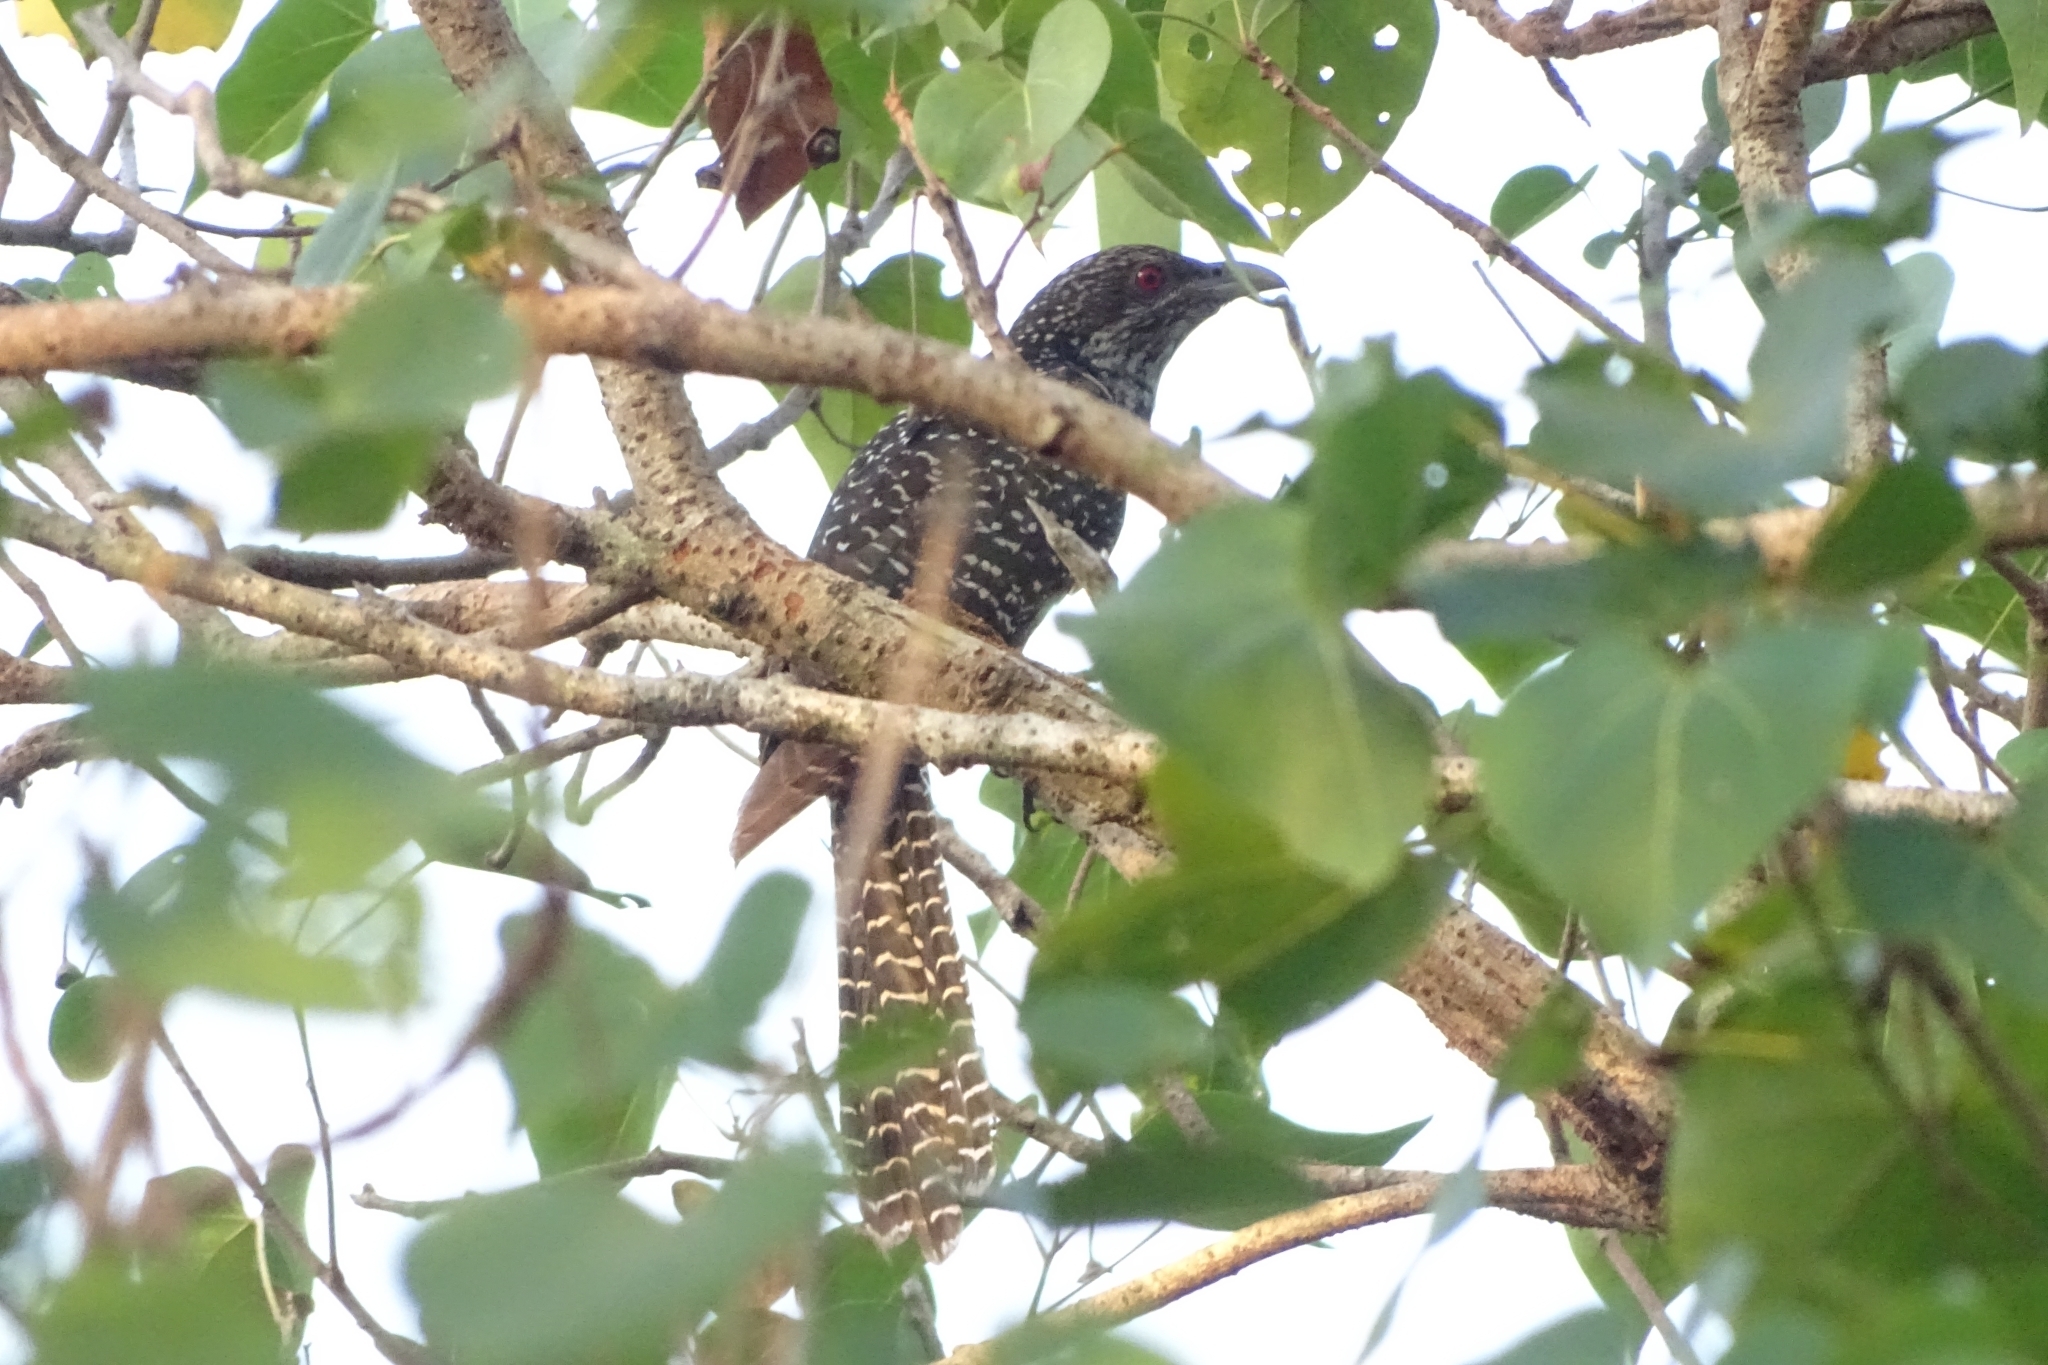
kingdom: Animalia
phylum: Chordata
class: Aves
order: Cuculiformes
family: Cuculidae
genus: Eudynamys
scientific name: Eudynamys scolopaceus
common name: Asian koel
